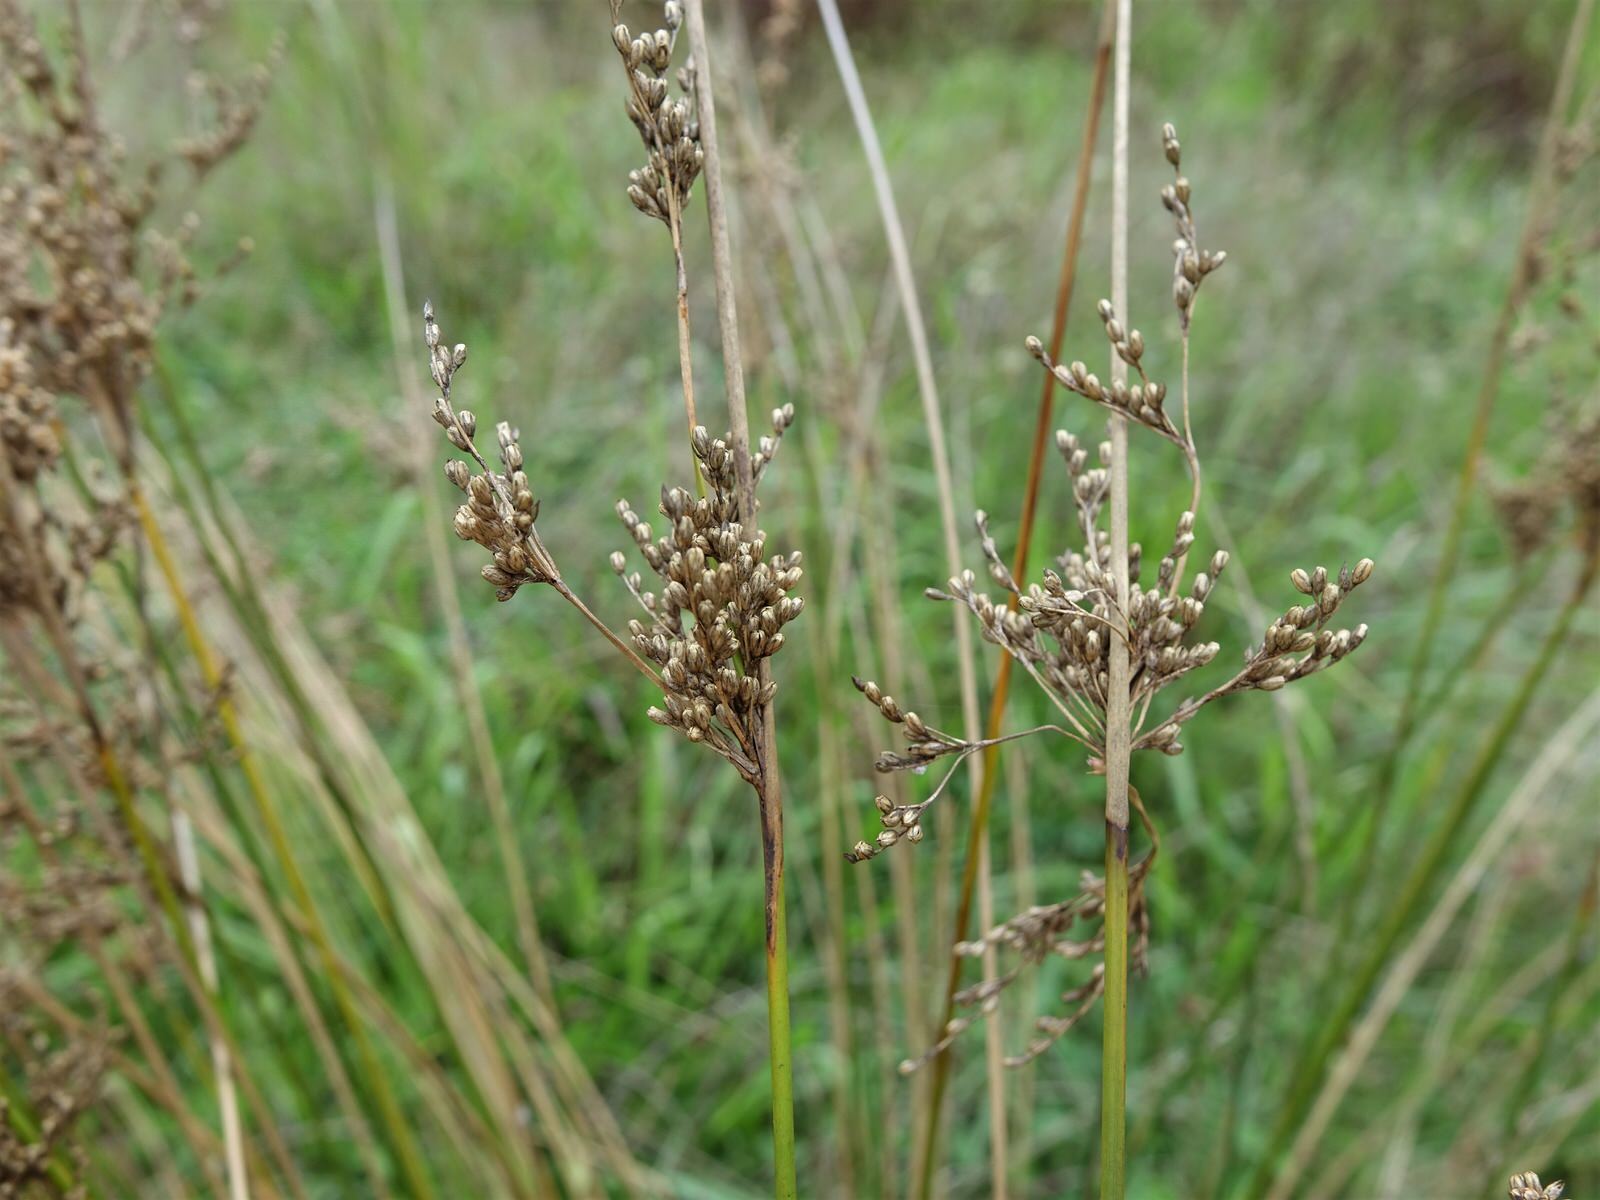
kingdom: Plantae
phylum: Tracheophyta
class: Liliopsida
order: Poales
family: Juncaceae
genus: Juncus
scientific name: Juncus subsecundus
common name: Fingered rush
